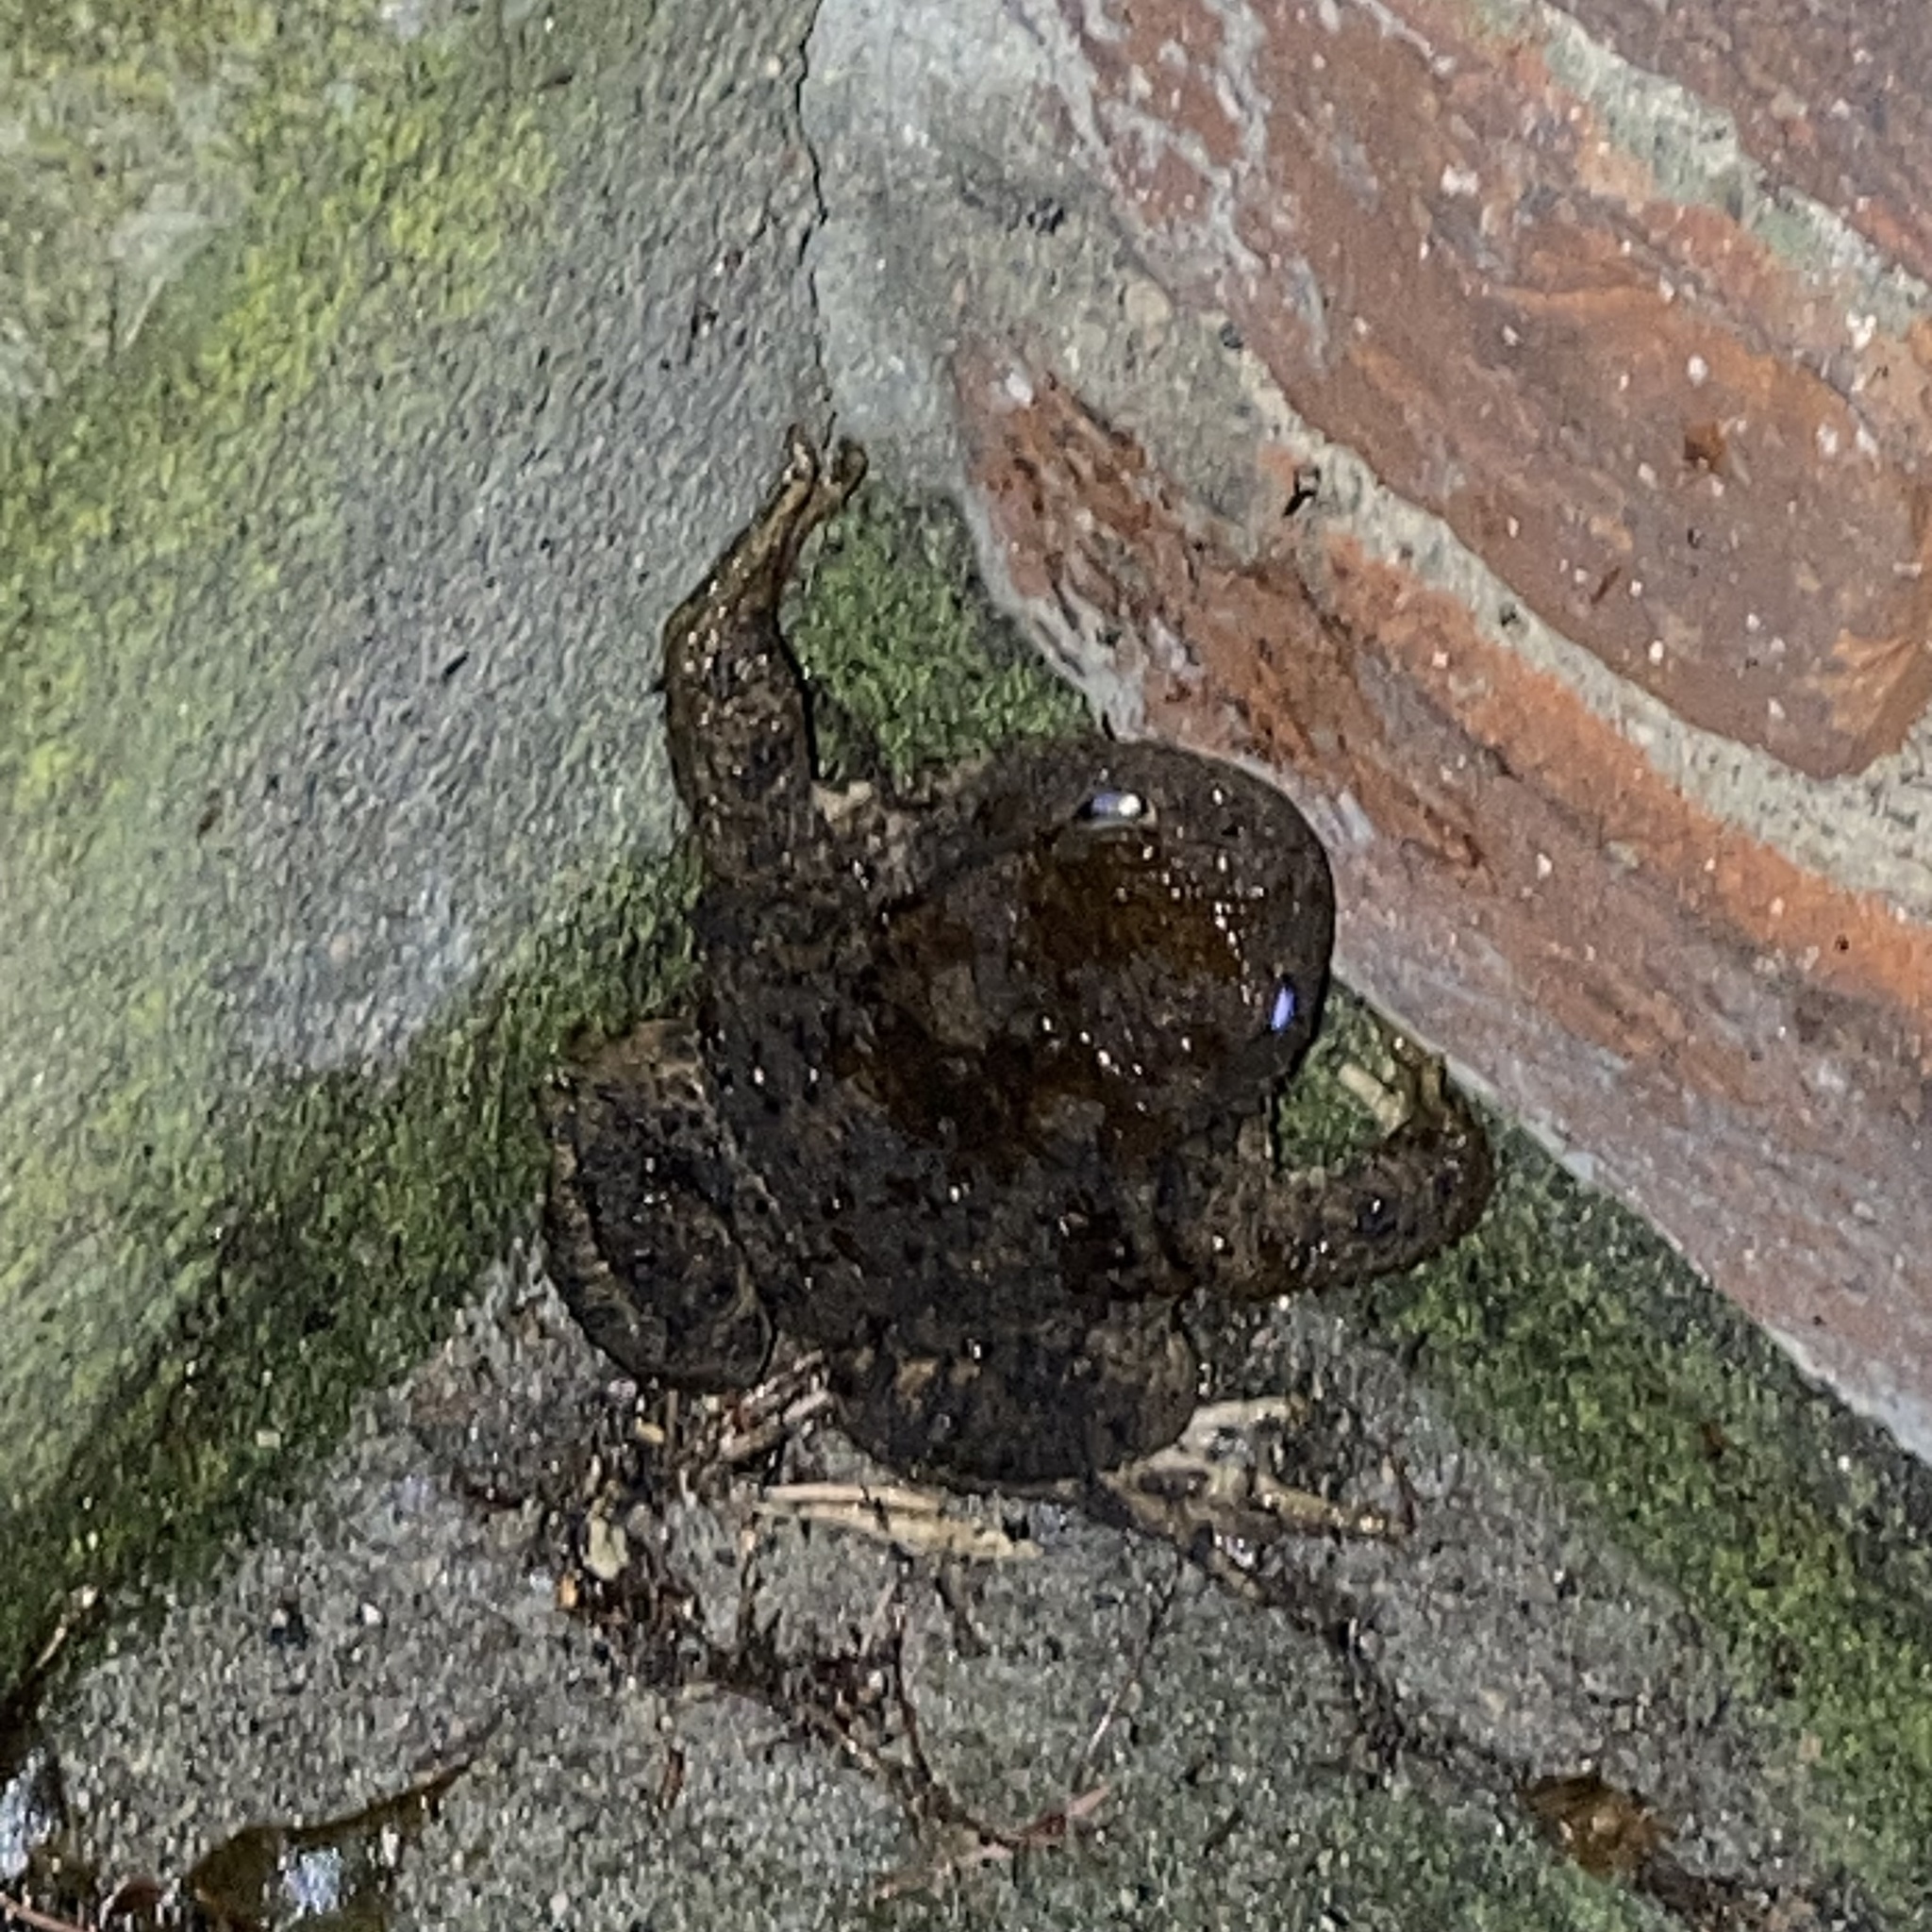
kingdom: Animalia
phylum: Chordata
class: Amphibia
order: Anura
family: Bufonidae
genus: Bufo
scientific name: Bufo bufo
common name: Common toad
